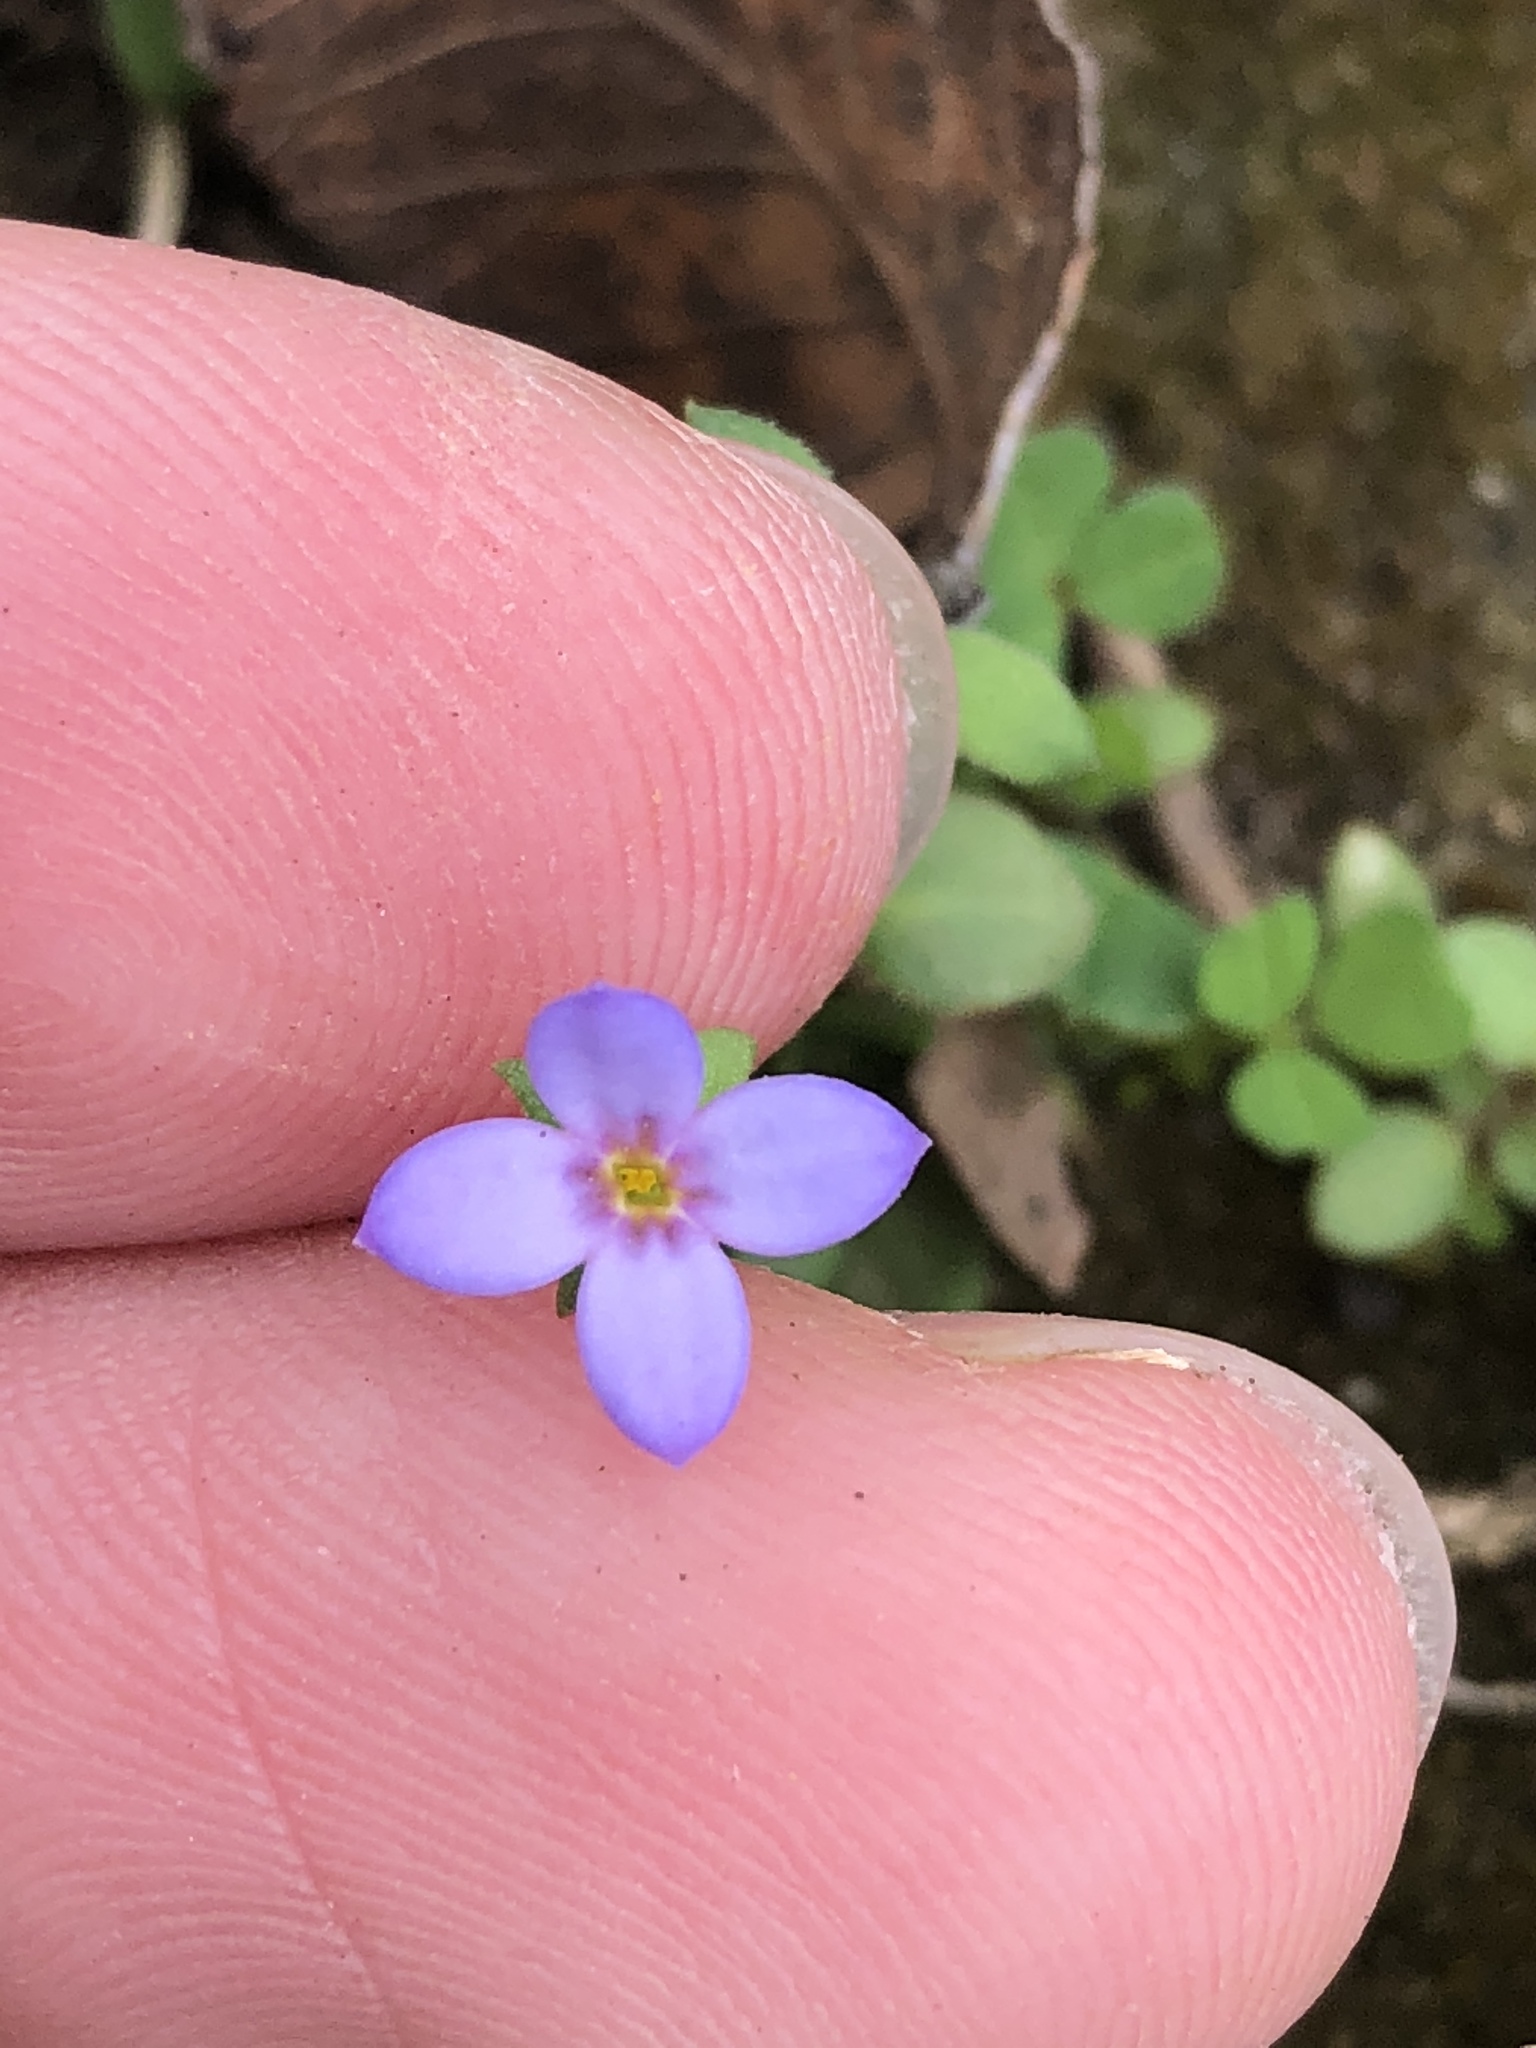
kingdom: Plantae
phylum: Tracheophyta
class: Magnoliopsida
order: Gentianales
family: Rubiaceae
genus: Houstonia
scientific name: Houstonia pusilla
